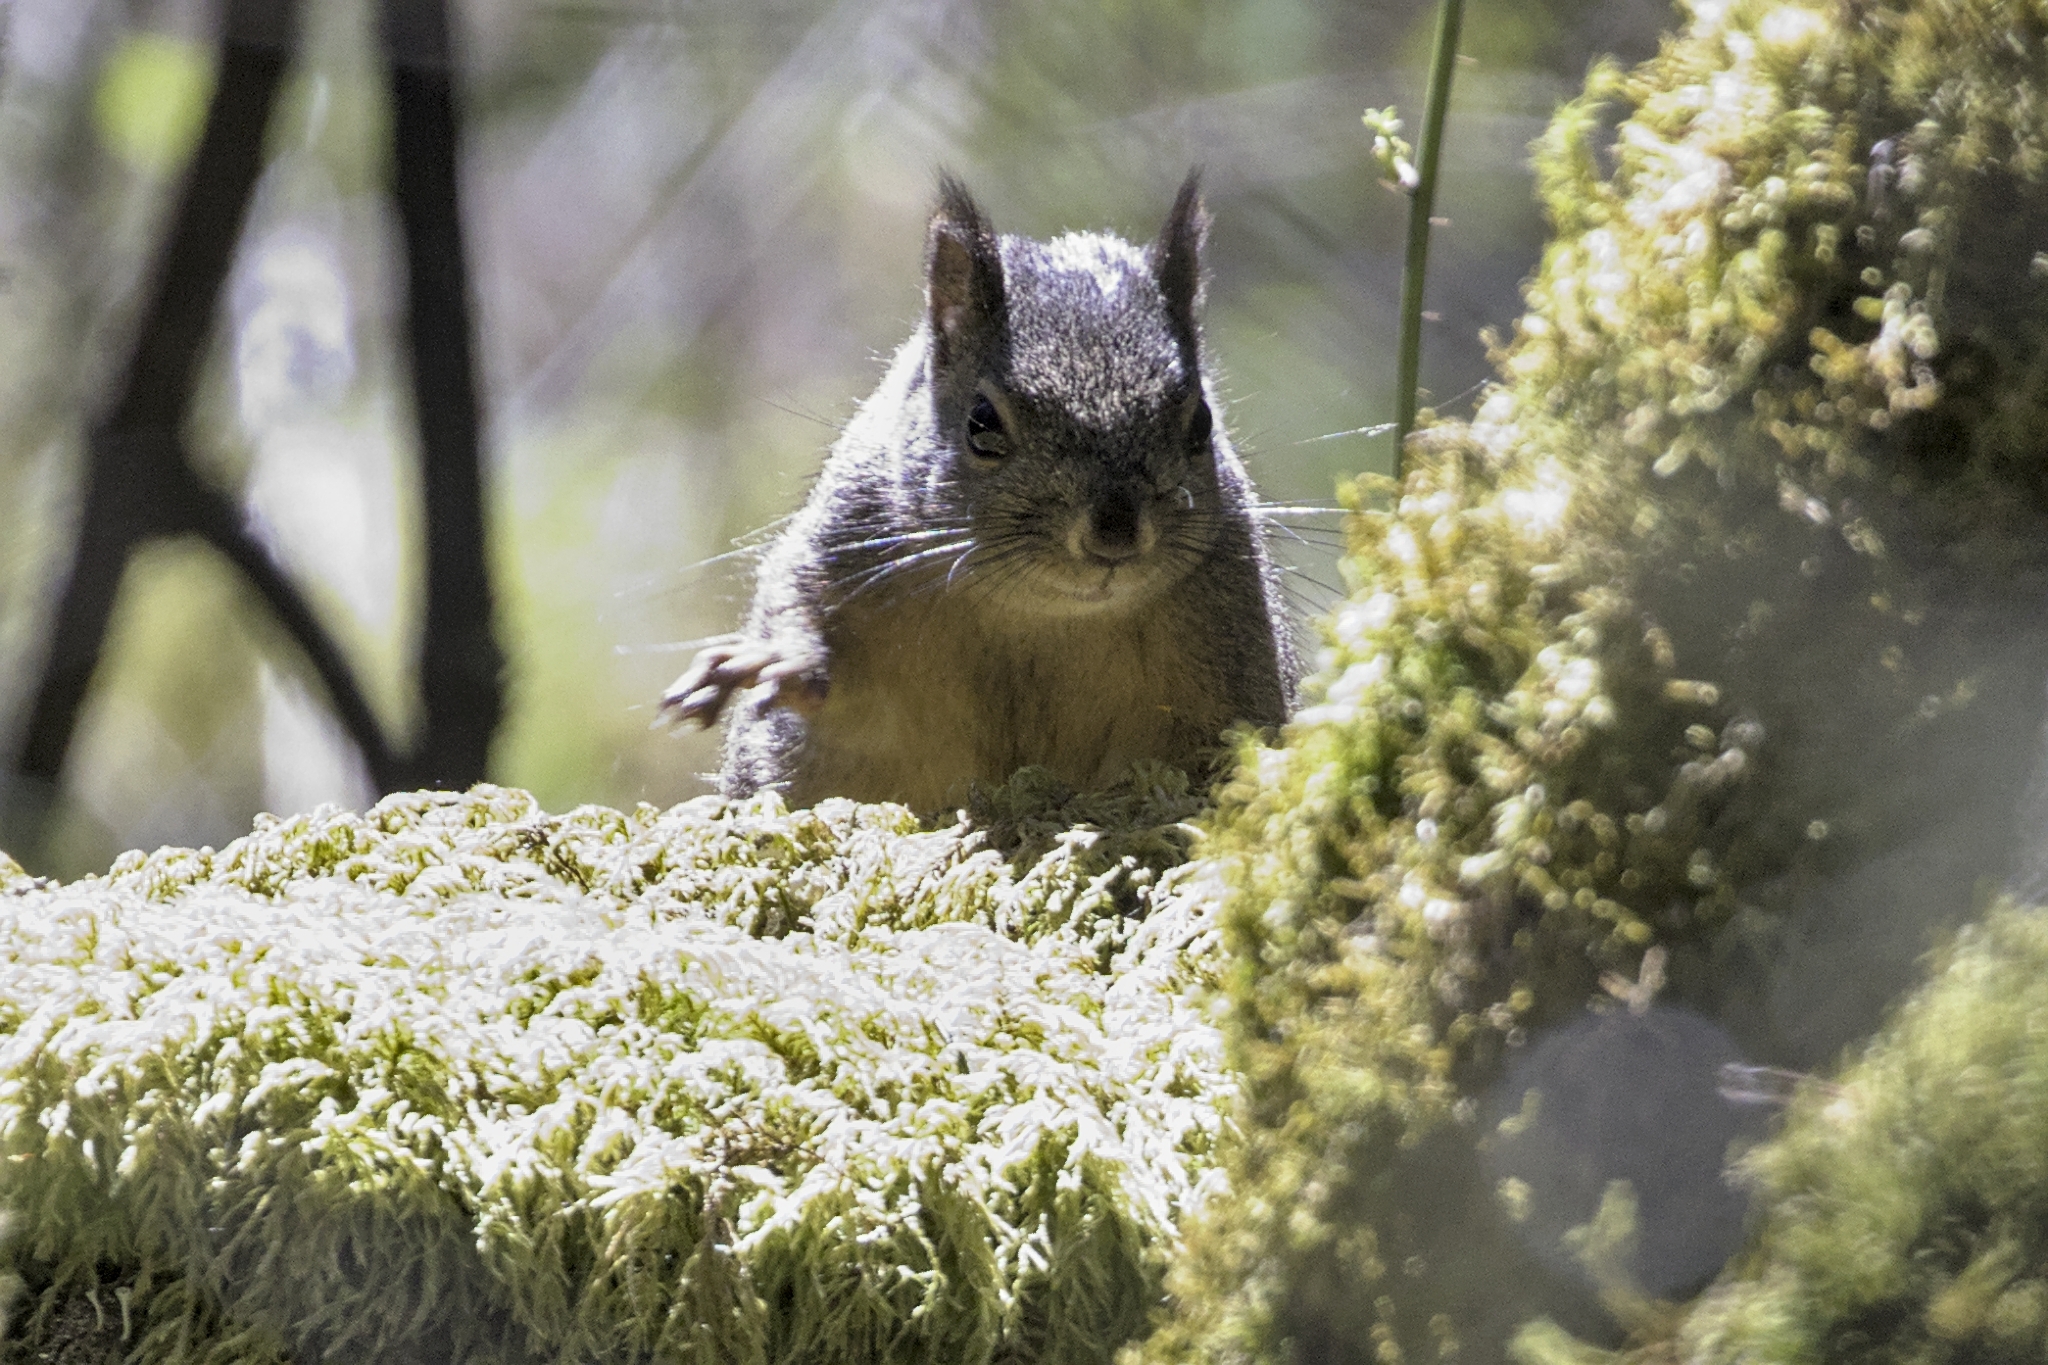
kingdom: Animalia
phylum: Chordata
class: Mammalia
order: Rodentia
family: Sciuridae
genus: Tamiasciurus
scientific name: Tamiasciurus douglasii
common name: Douglas's squirrel
